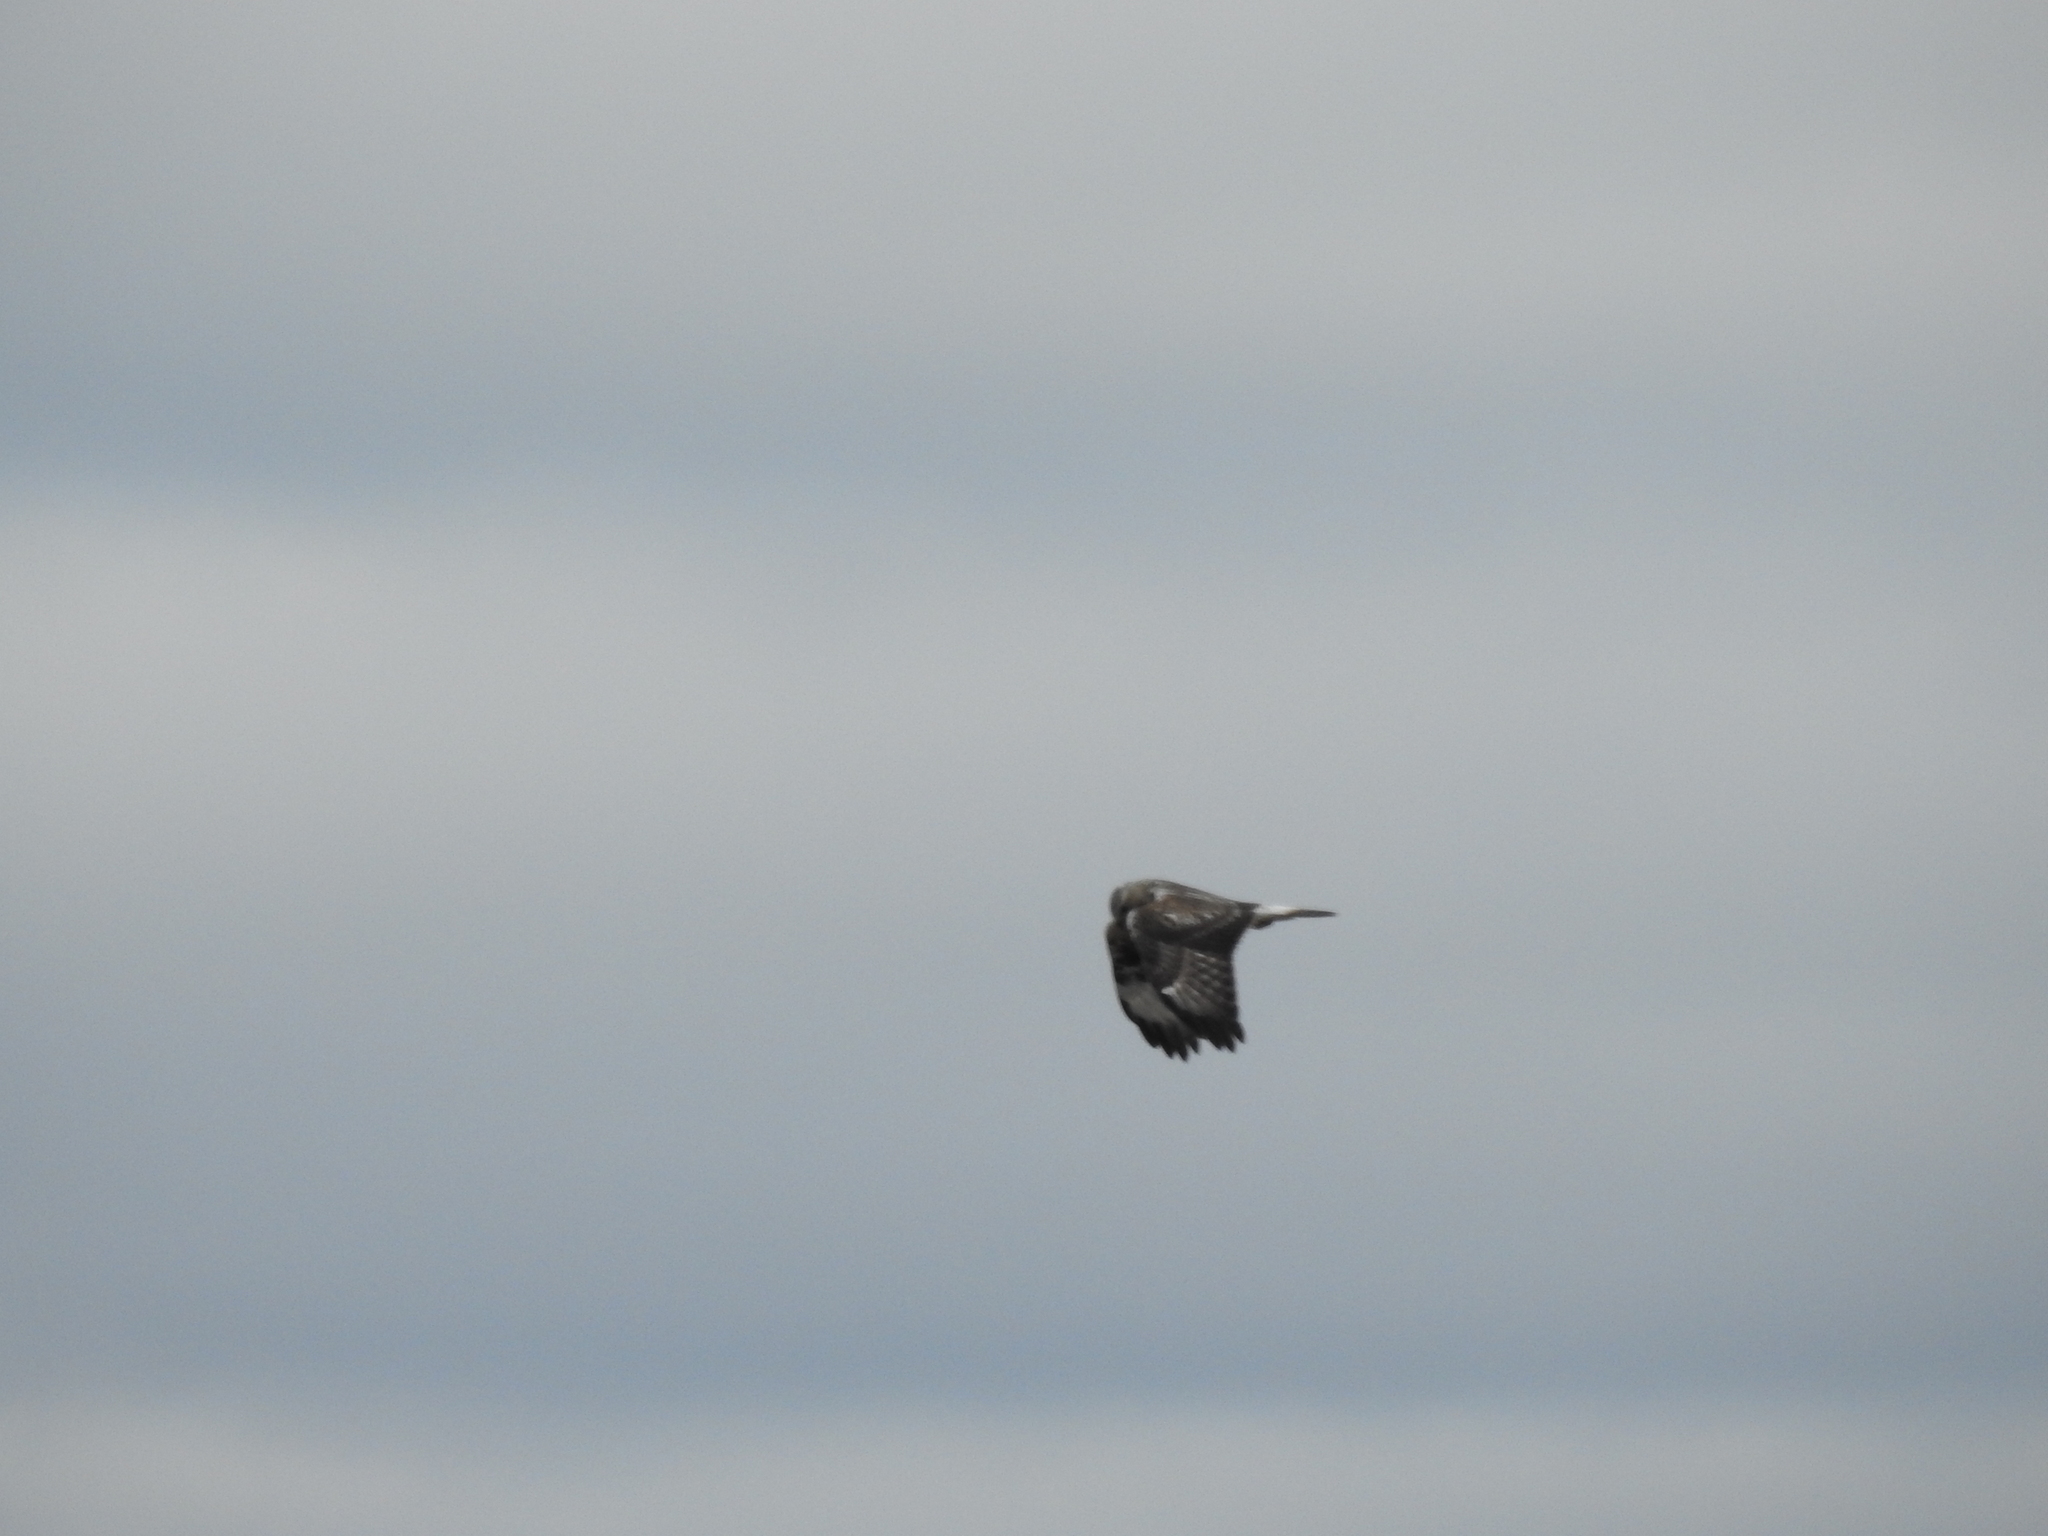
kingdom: Animalia
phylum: Chordata
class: Aves
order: Accipitriformes
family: Accipitridae
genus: Buteo
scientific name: Buteo lagopus
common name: Rough-legged buzzard
